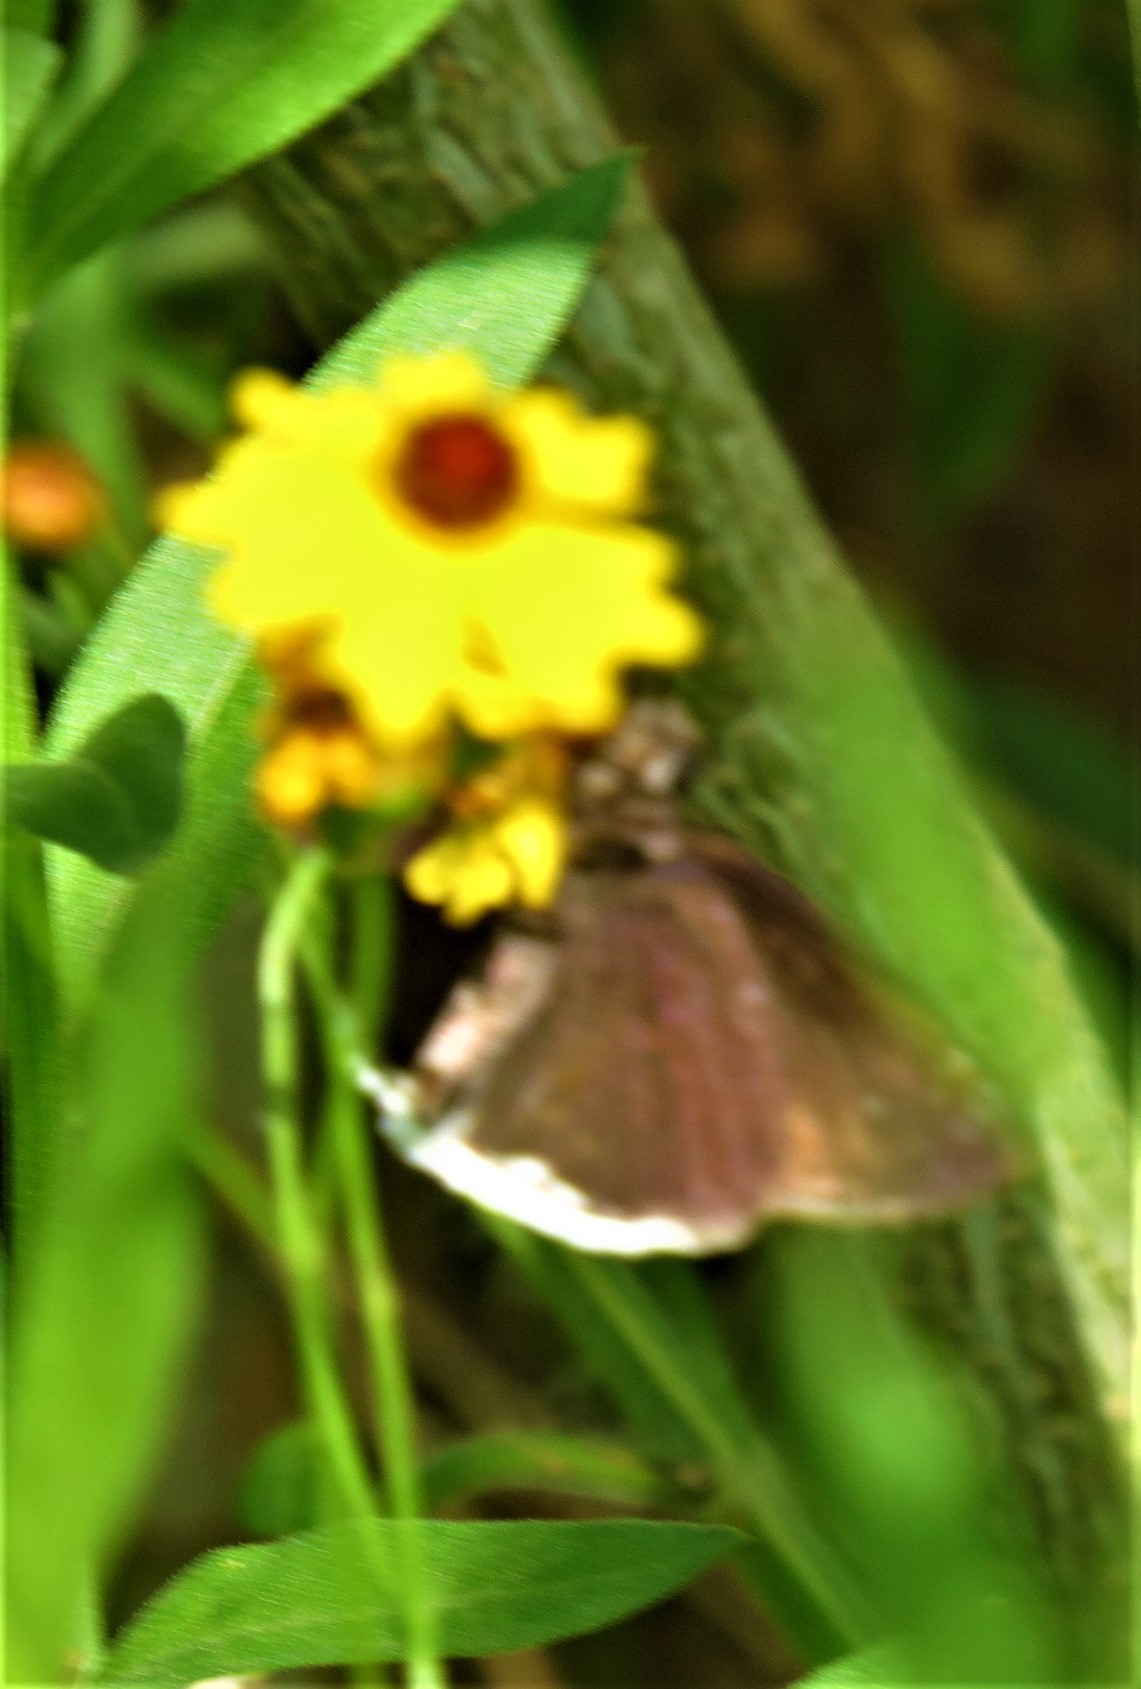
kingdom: Animalia
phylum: Arthropoda
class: Insecta
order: Lepidoptera
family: Hesperiidae
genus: Erynnis
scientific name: Erynnis tristis
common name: Mournful duskywing
